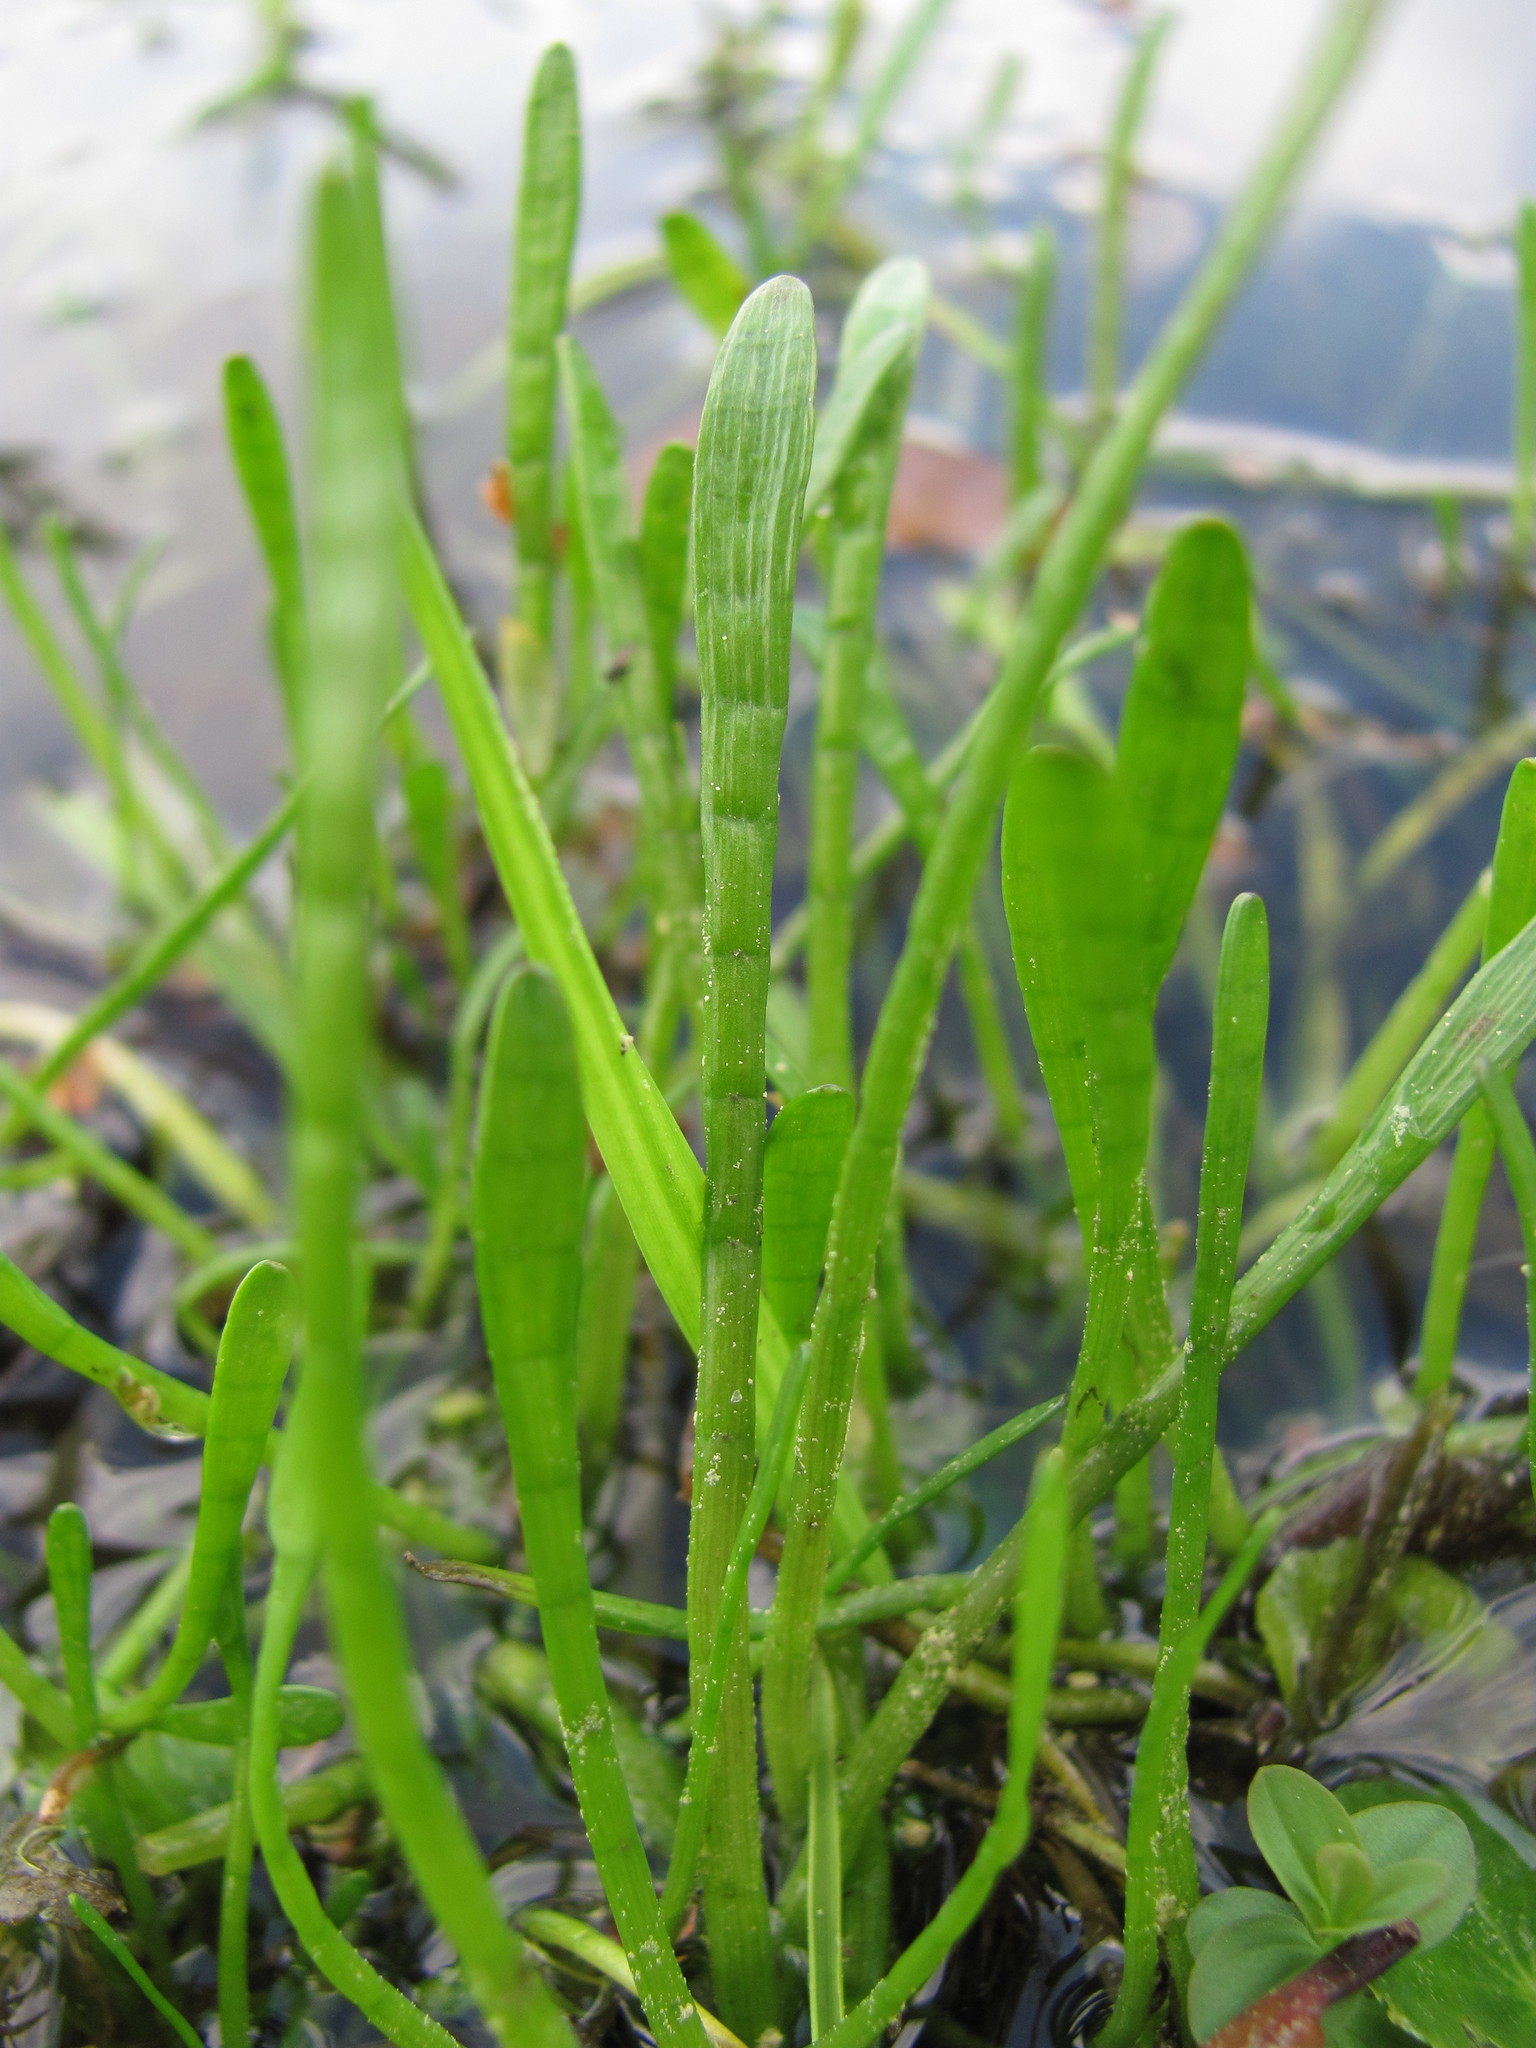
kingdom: Plantae
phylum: Tracheophyta
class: Magnoliopsida
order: Apiales
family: Apiaceae
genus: Lilaeopsis
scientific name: Lilaeopsis carolinensis
